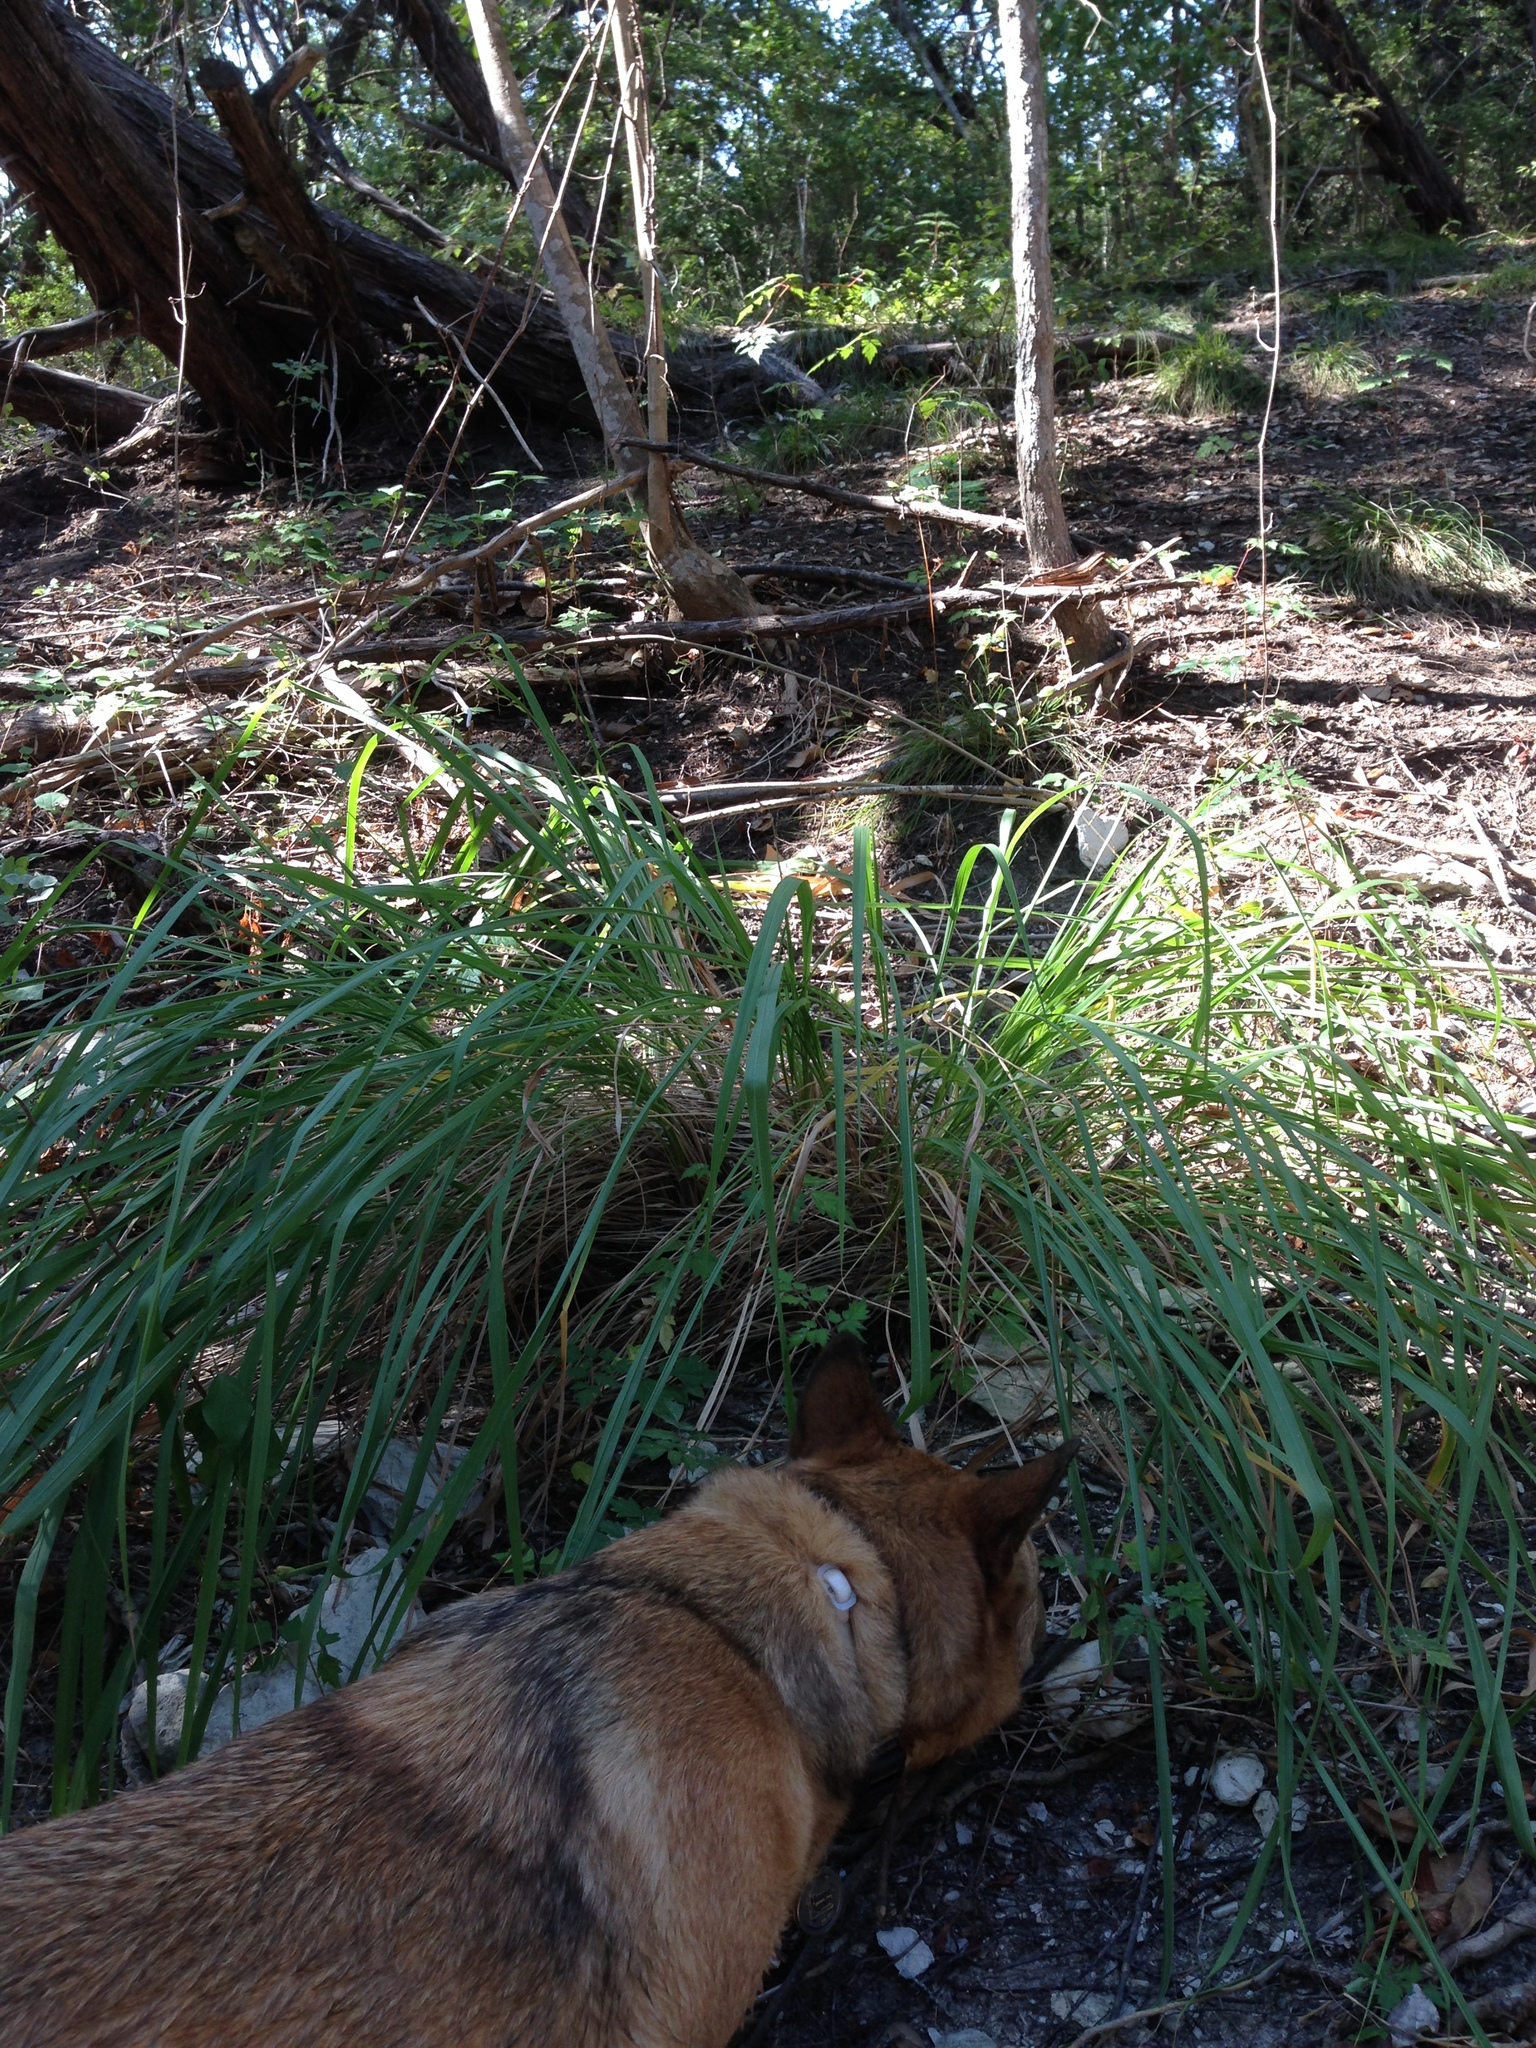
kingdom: Plantae
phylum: Tracheophyta
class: Liliopsida
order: Poales
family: Poaceae
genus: Tripsacum
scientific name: Tripsacum dactyloides
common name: Buffalo-grass
